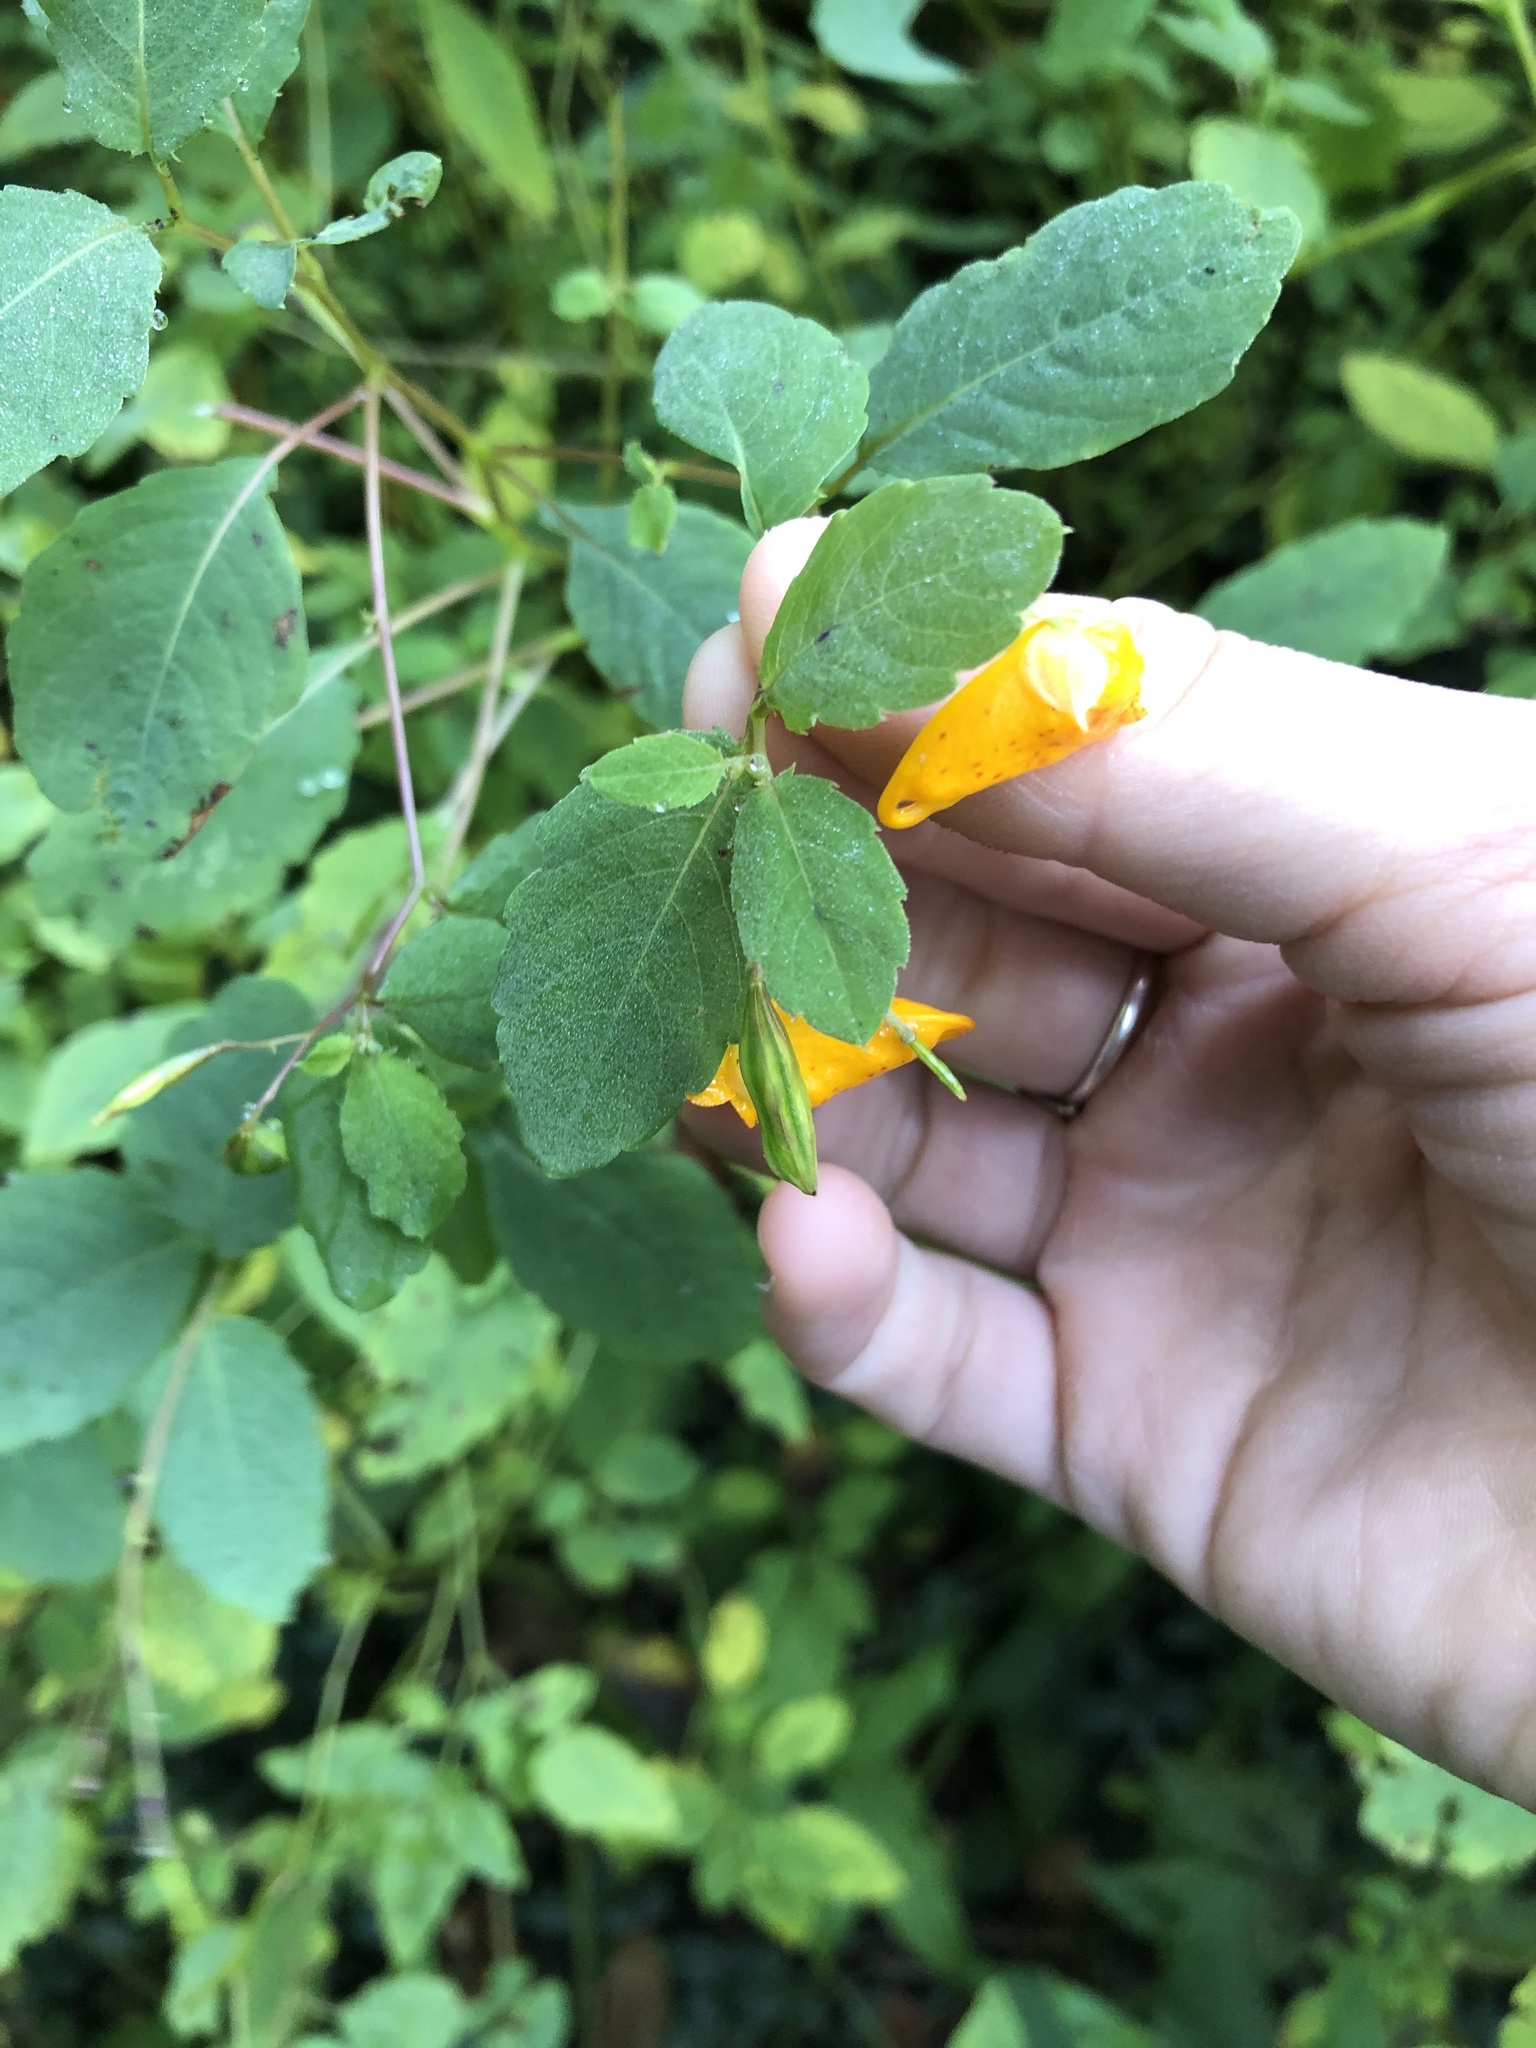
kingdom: Plantae
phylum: Tracheophyta
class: Magnoliopsida
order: Ericales
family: Balsaminaceae
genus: Impatiens
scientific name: Impatiens capensis
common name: Orange balsam
